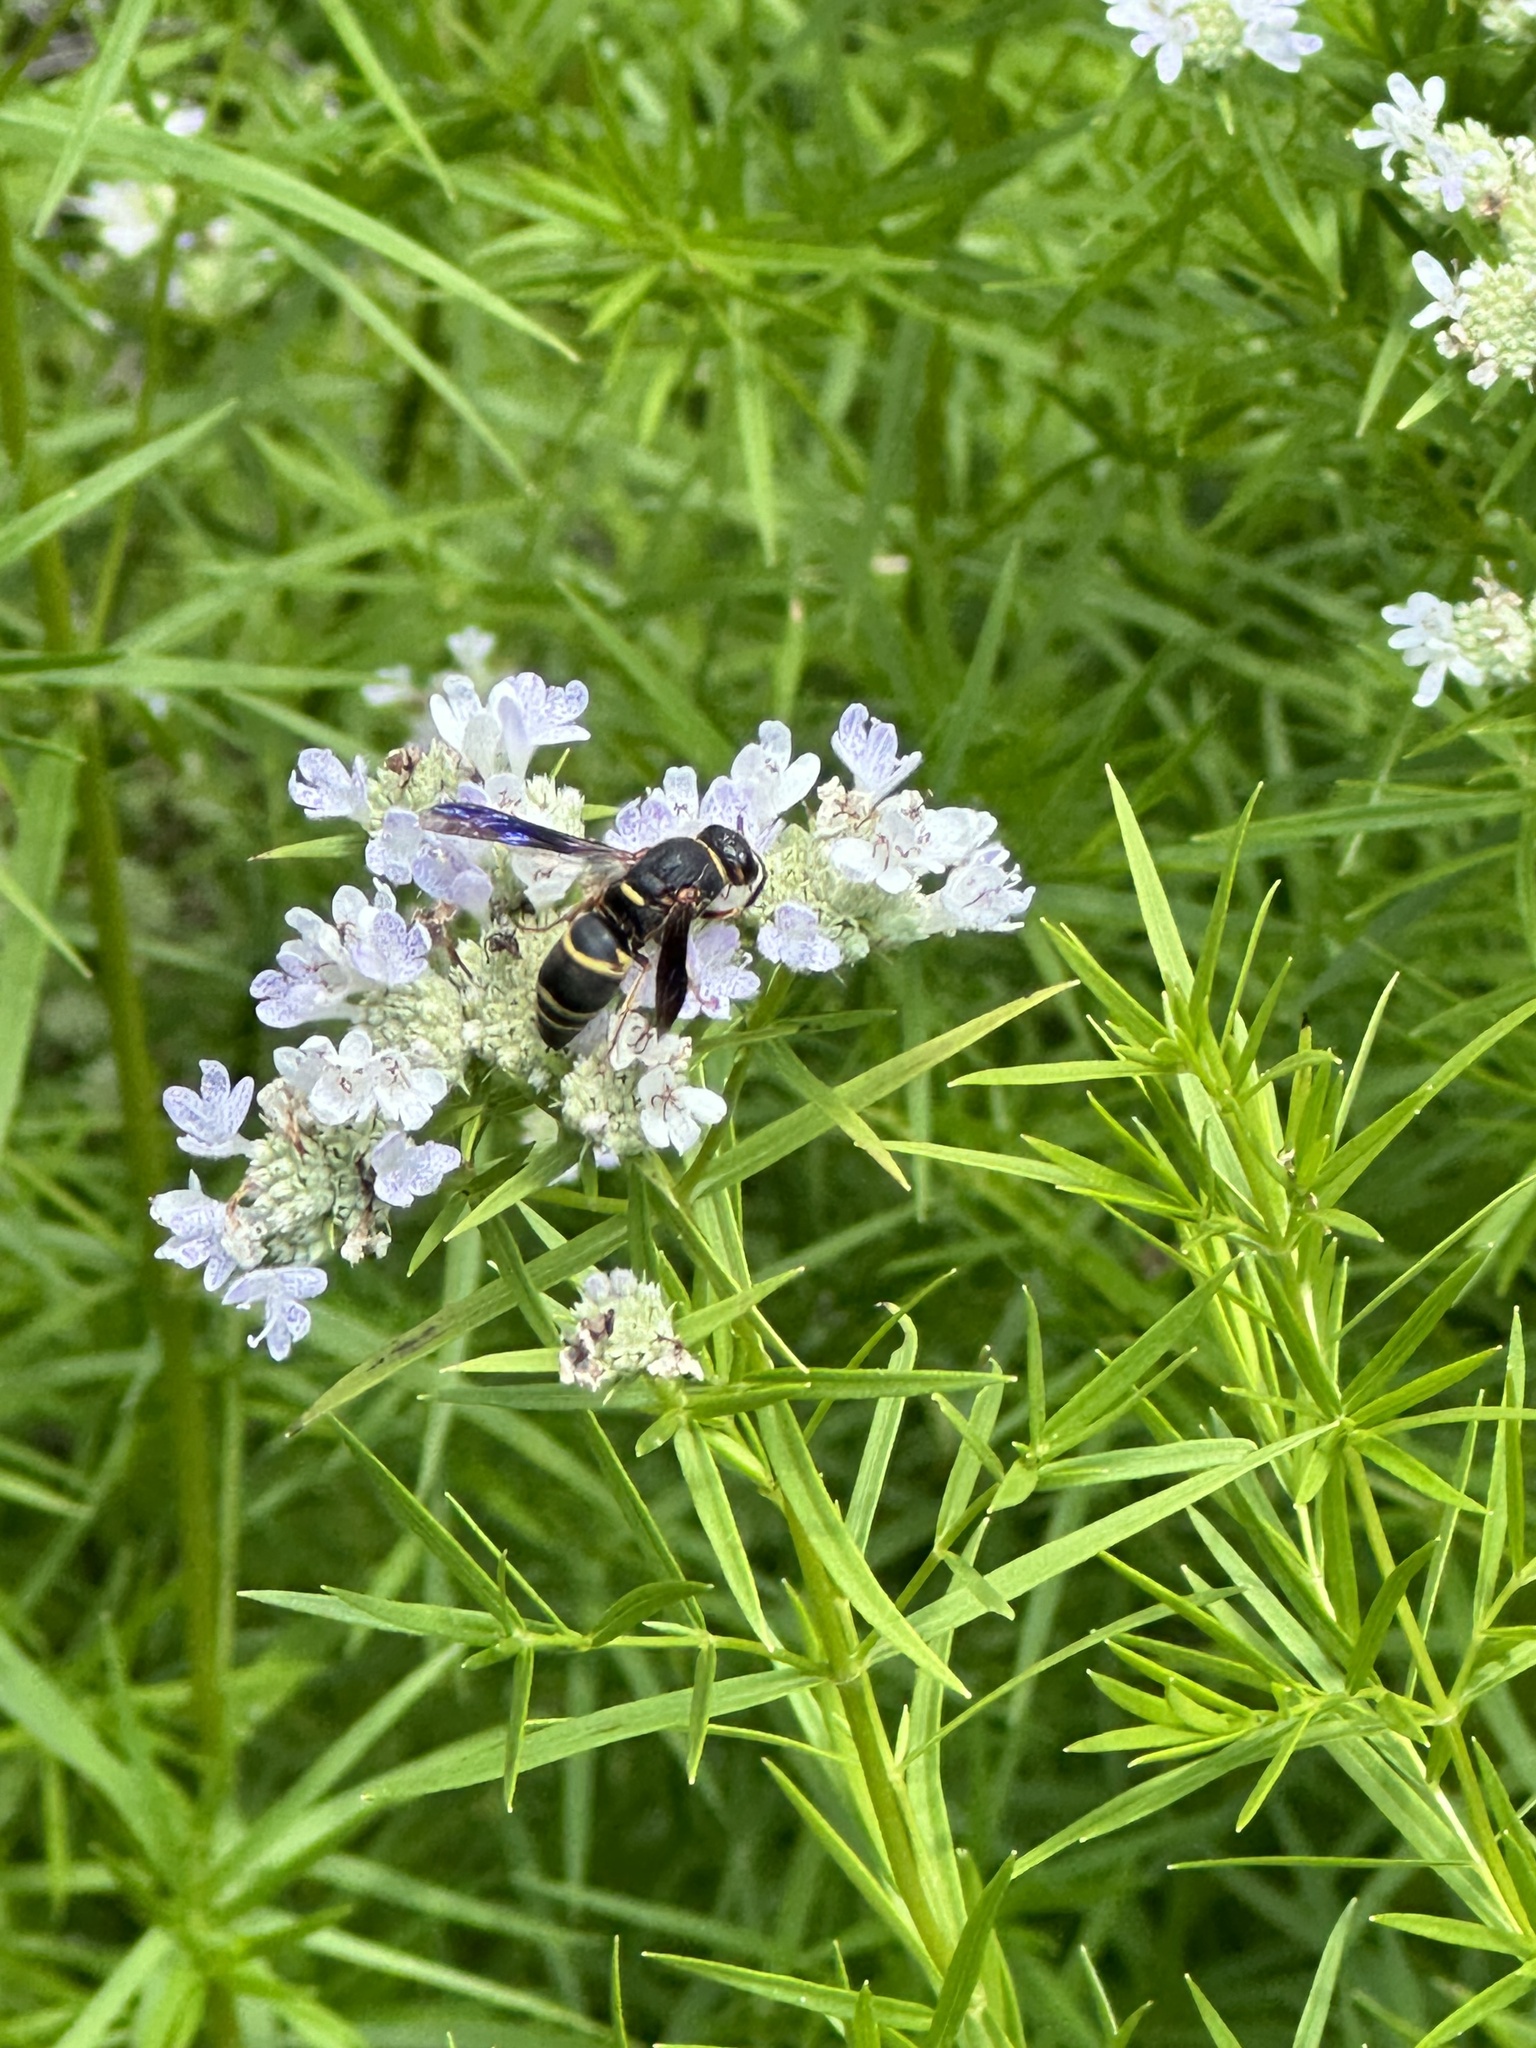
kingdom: Animalia
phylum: Arthropoda
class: Insecta
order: Hymenoptera
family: Eumenidae
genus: Euodynerus
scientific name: Euodynerus hidalgo
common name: Wasp
